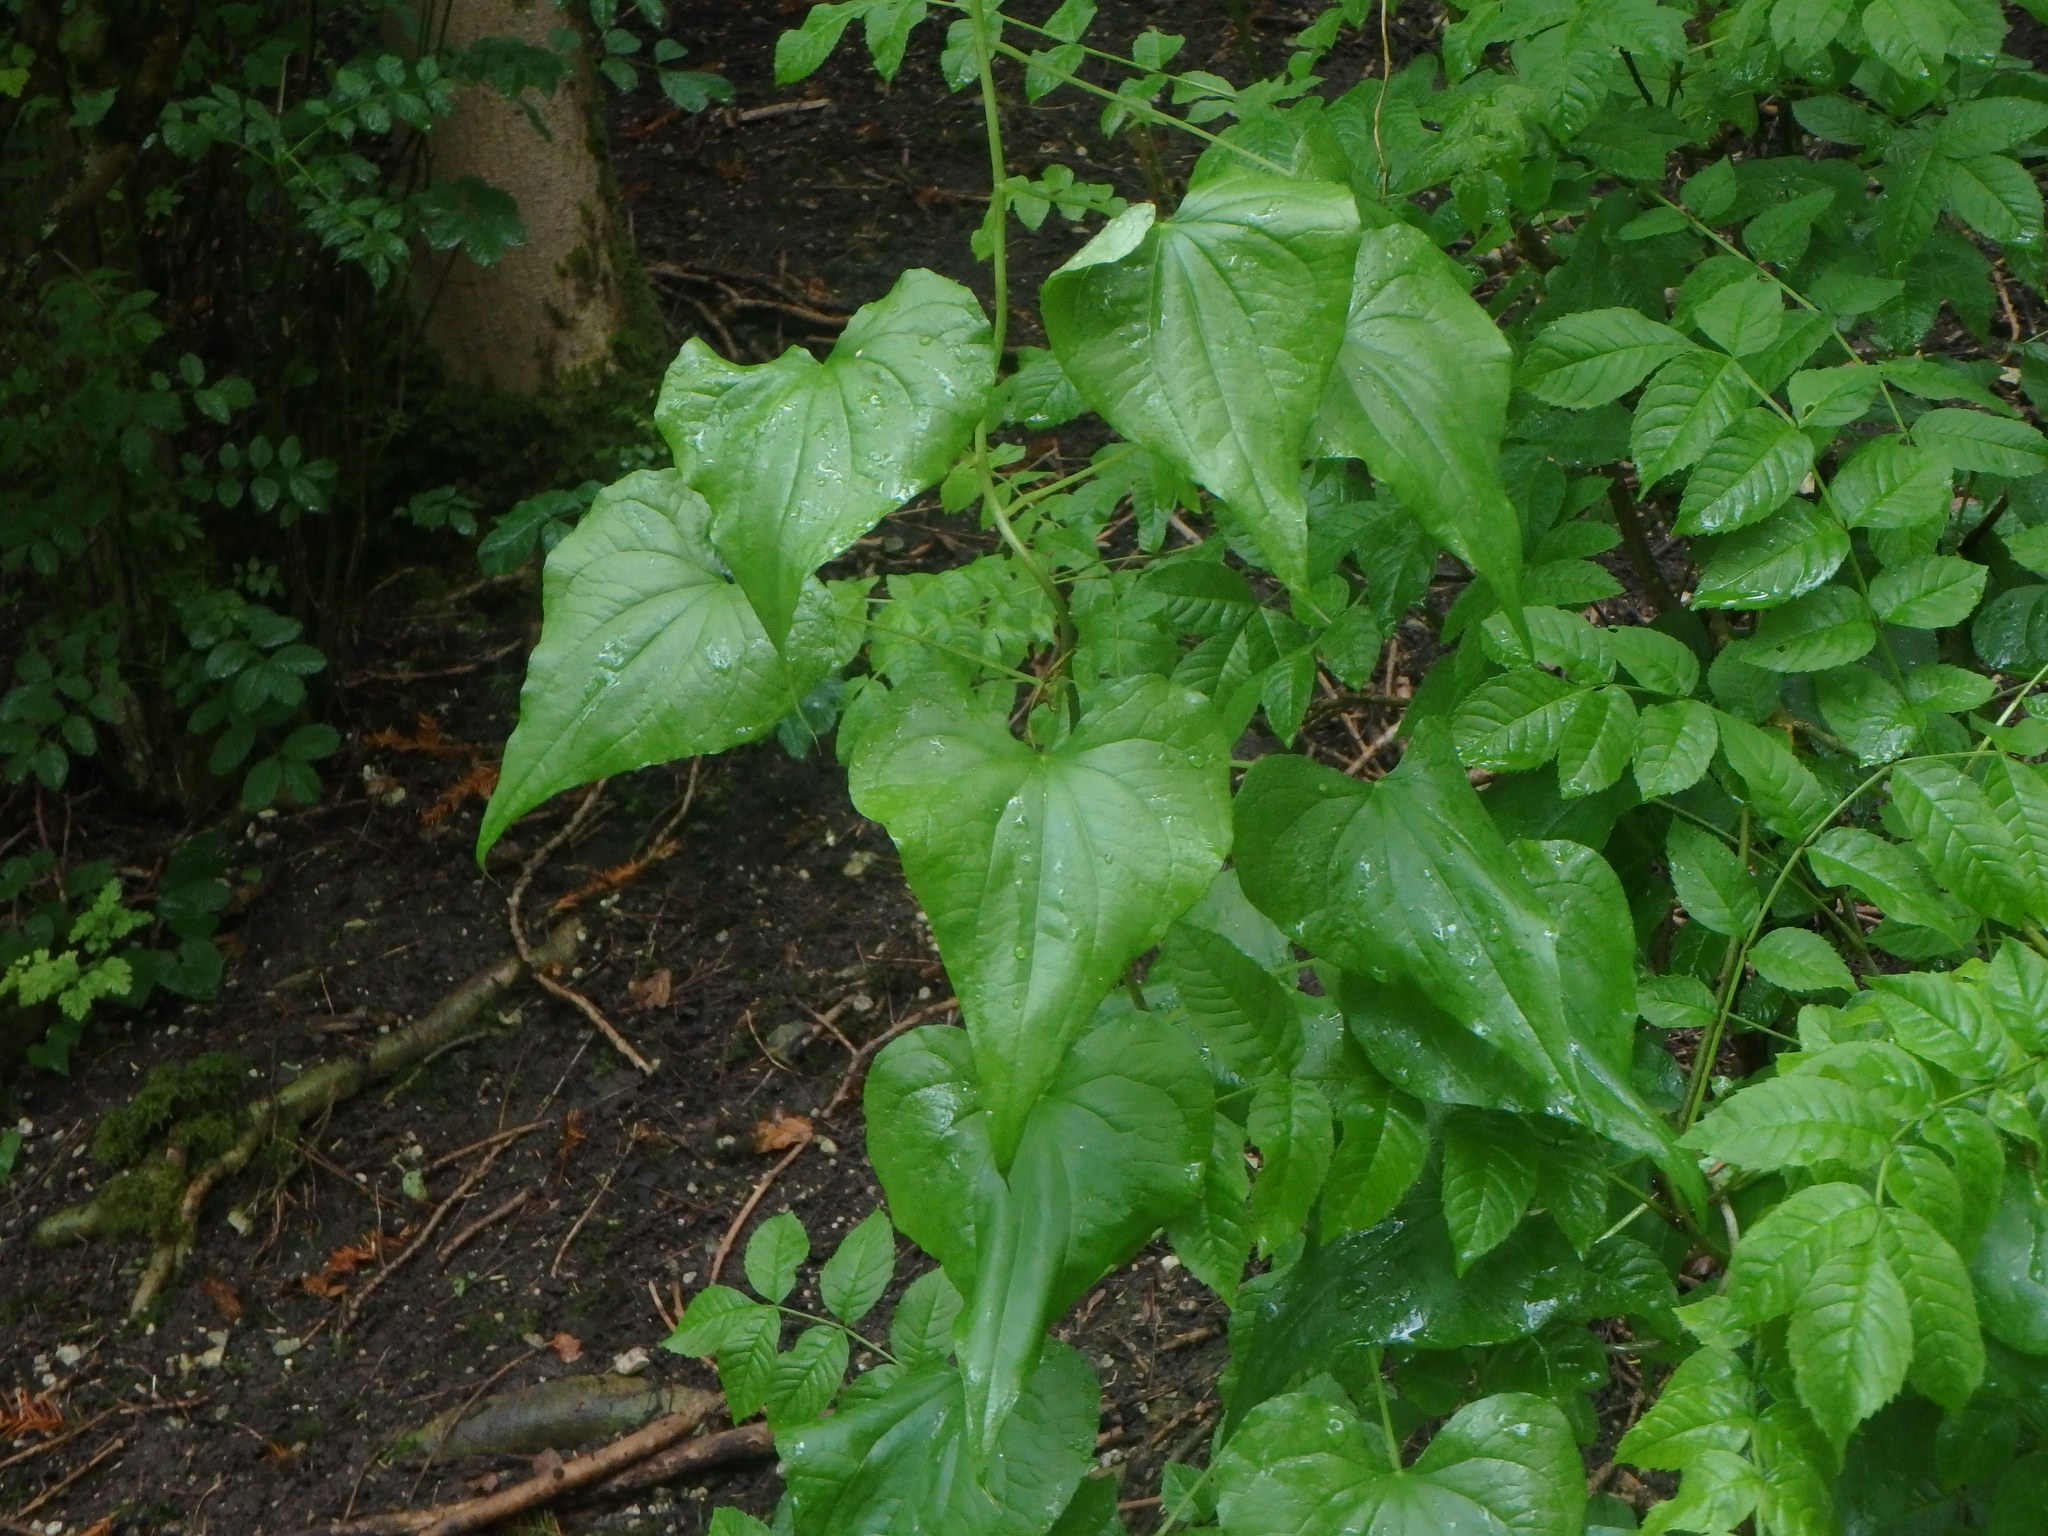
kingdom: Plantae
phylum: Tracheophyta
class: Liliopsida
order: Dioscoreales
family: Dioscoreaceae
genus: Dioscorea
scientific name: Dioscorea communis
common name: Black-bindweed
